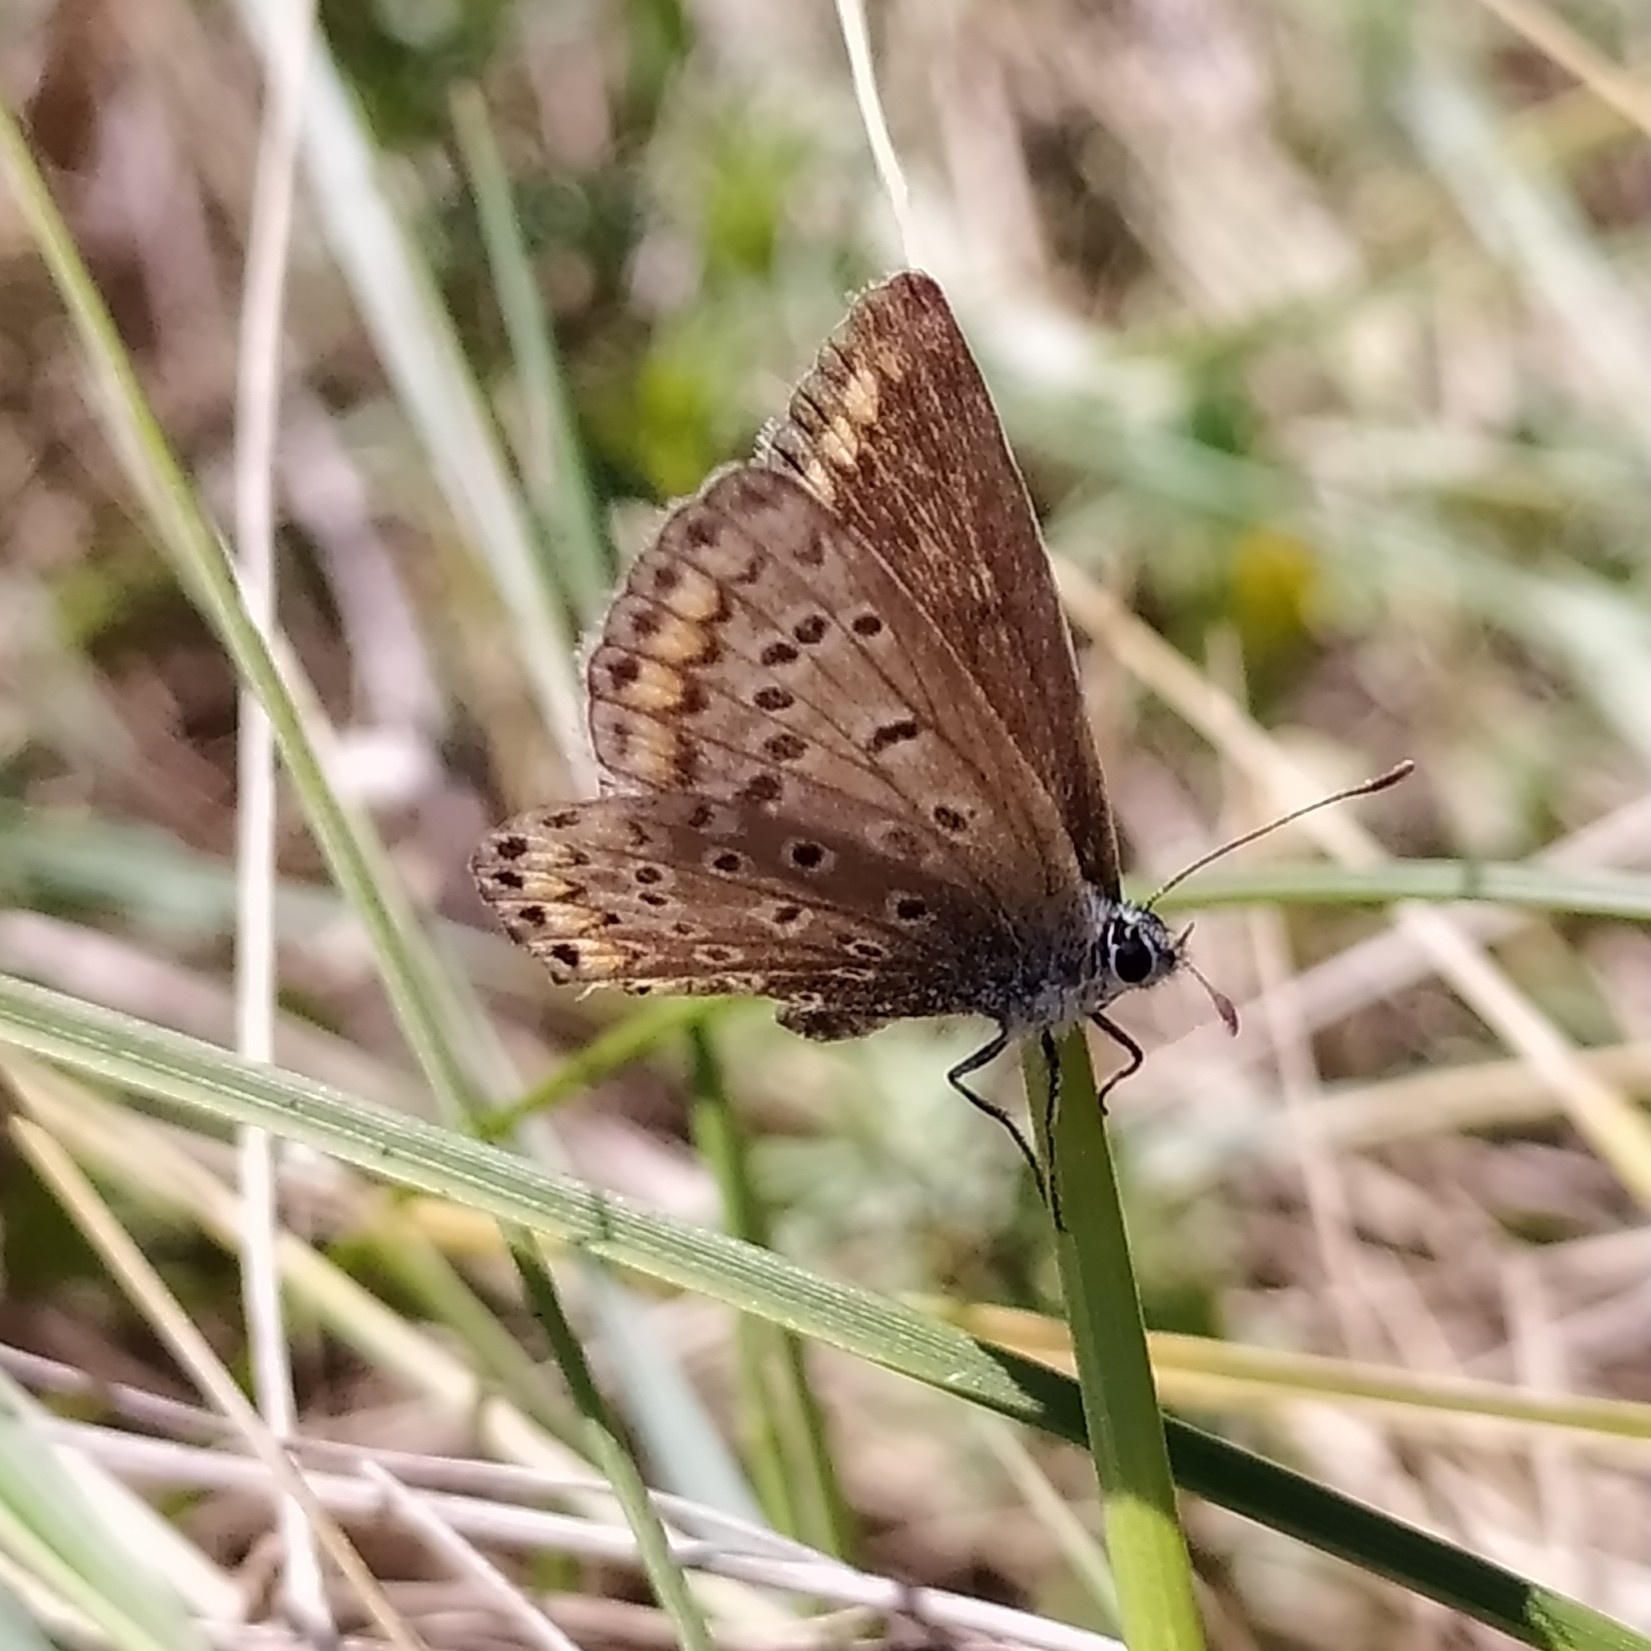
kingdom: Animalia
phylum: Arthropoda
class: Insecta
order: Lepidoptera
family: Lycaenidae
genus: Polyommatus
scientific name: Polyommatus icarus
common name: Common blue
